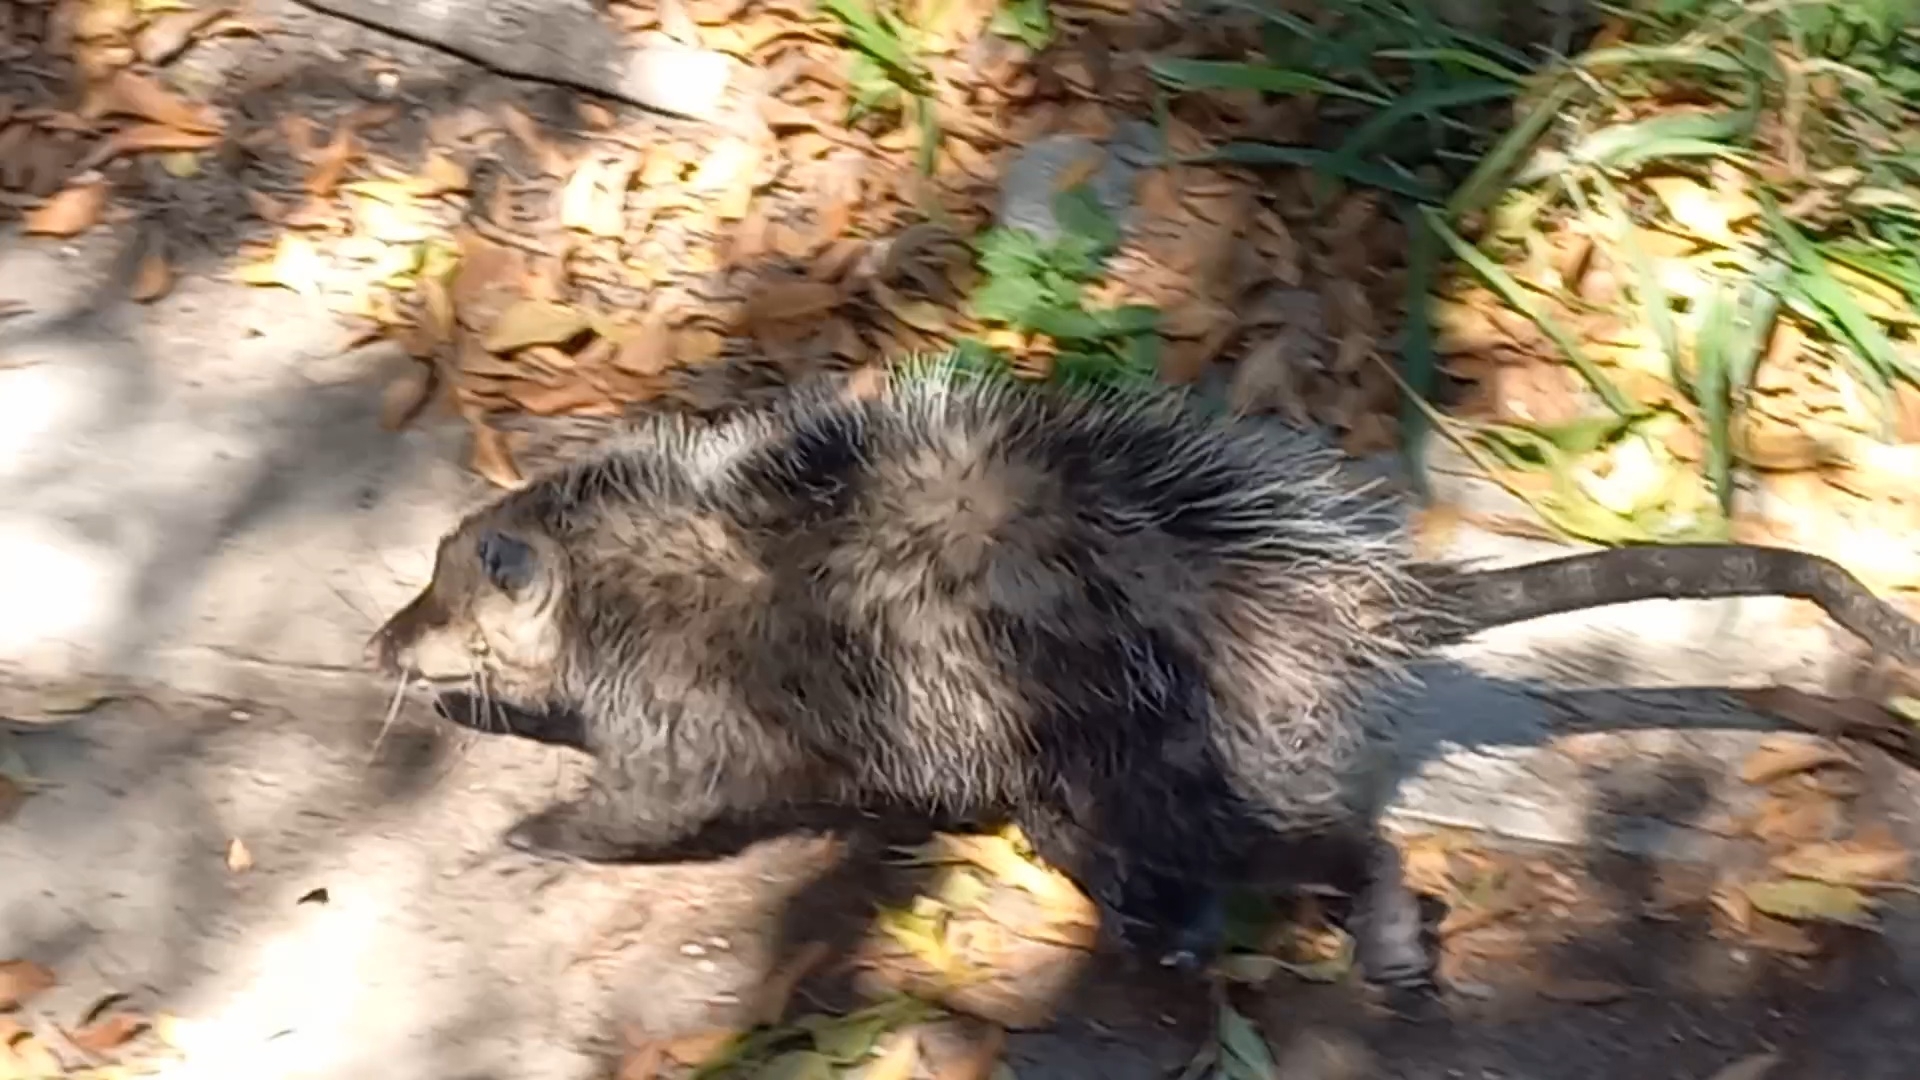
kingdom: Animalia
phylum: Chordata
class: Mammalia
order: Didelphimorphia
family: Didelphidae
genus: Didelphis
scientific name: Didelphis virginiana
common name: Virginia opossum
